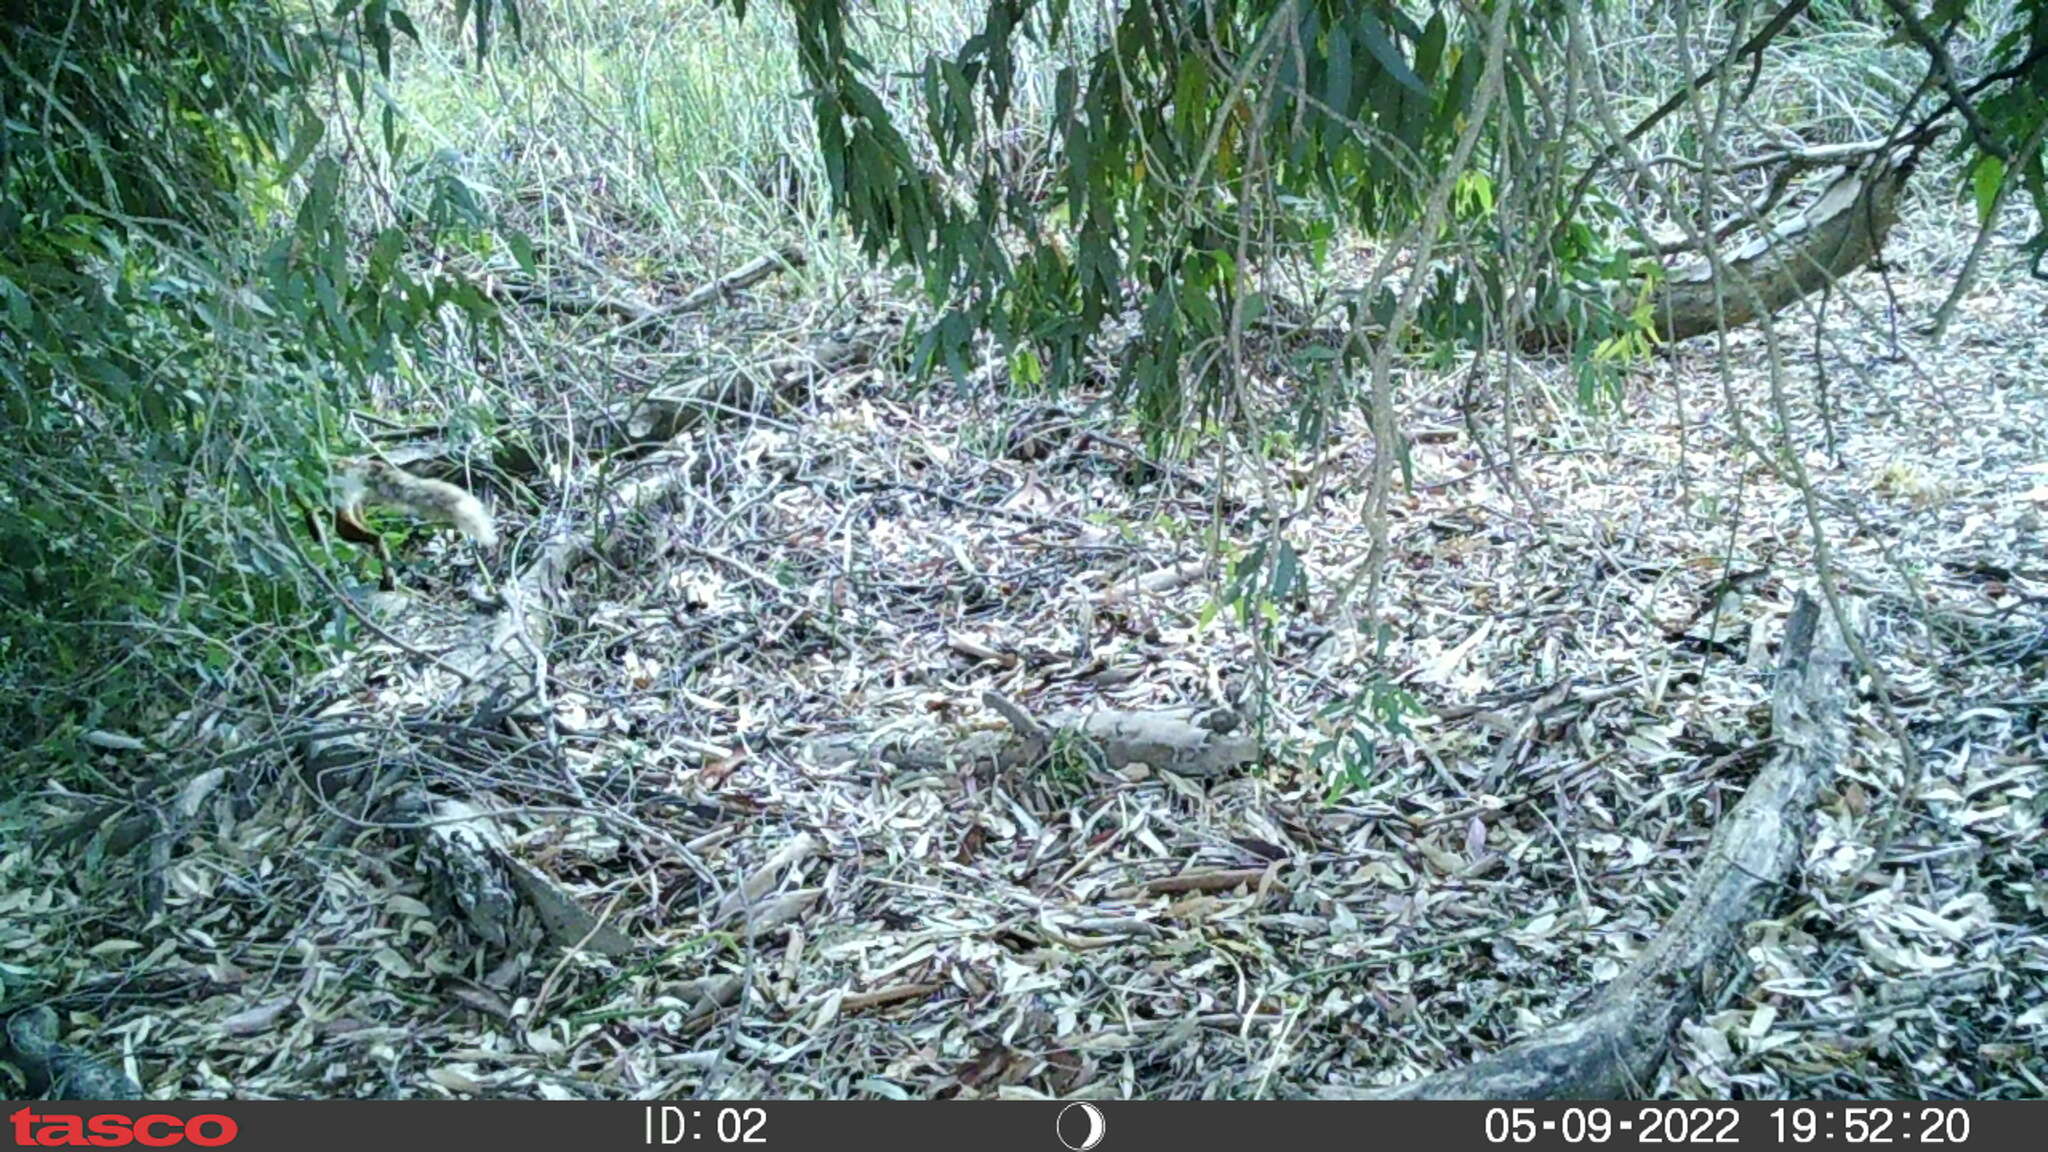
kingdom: Animalia
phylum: Chordata
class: Mammalia
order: Carnivora
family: Canidae
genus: Vulpes
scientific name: Vulpes vulpes
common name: Red fox
